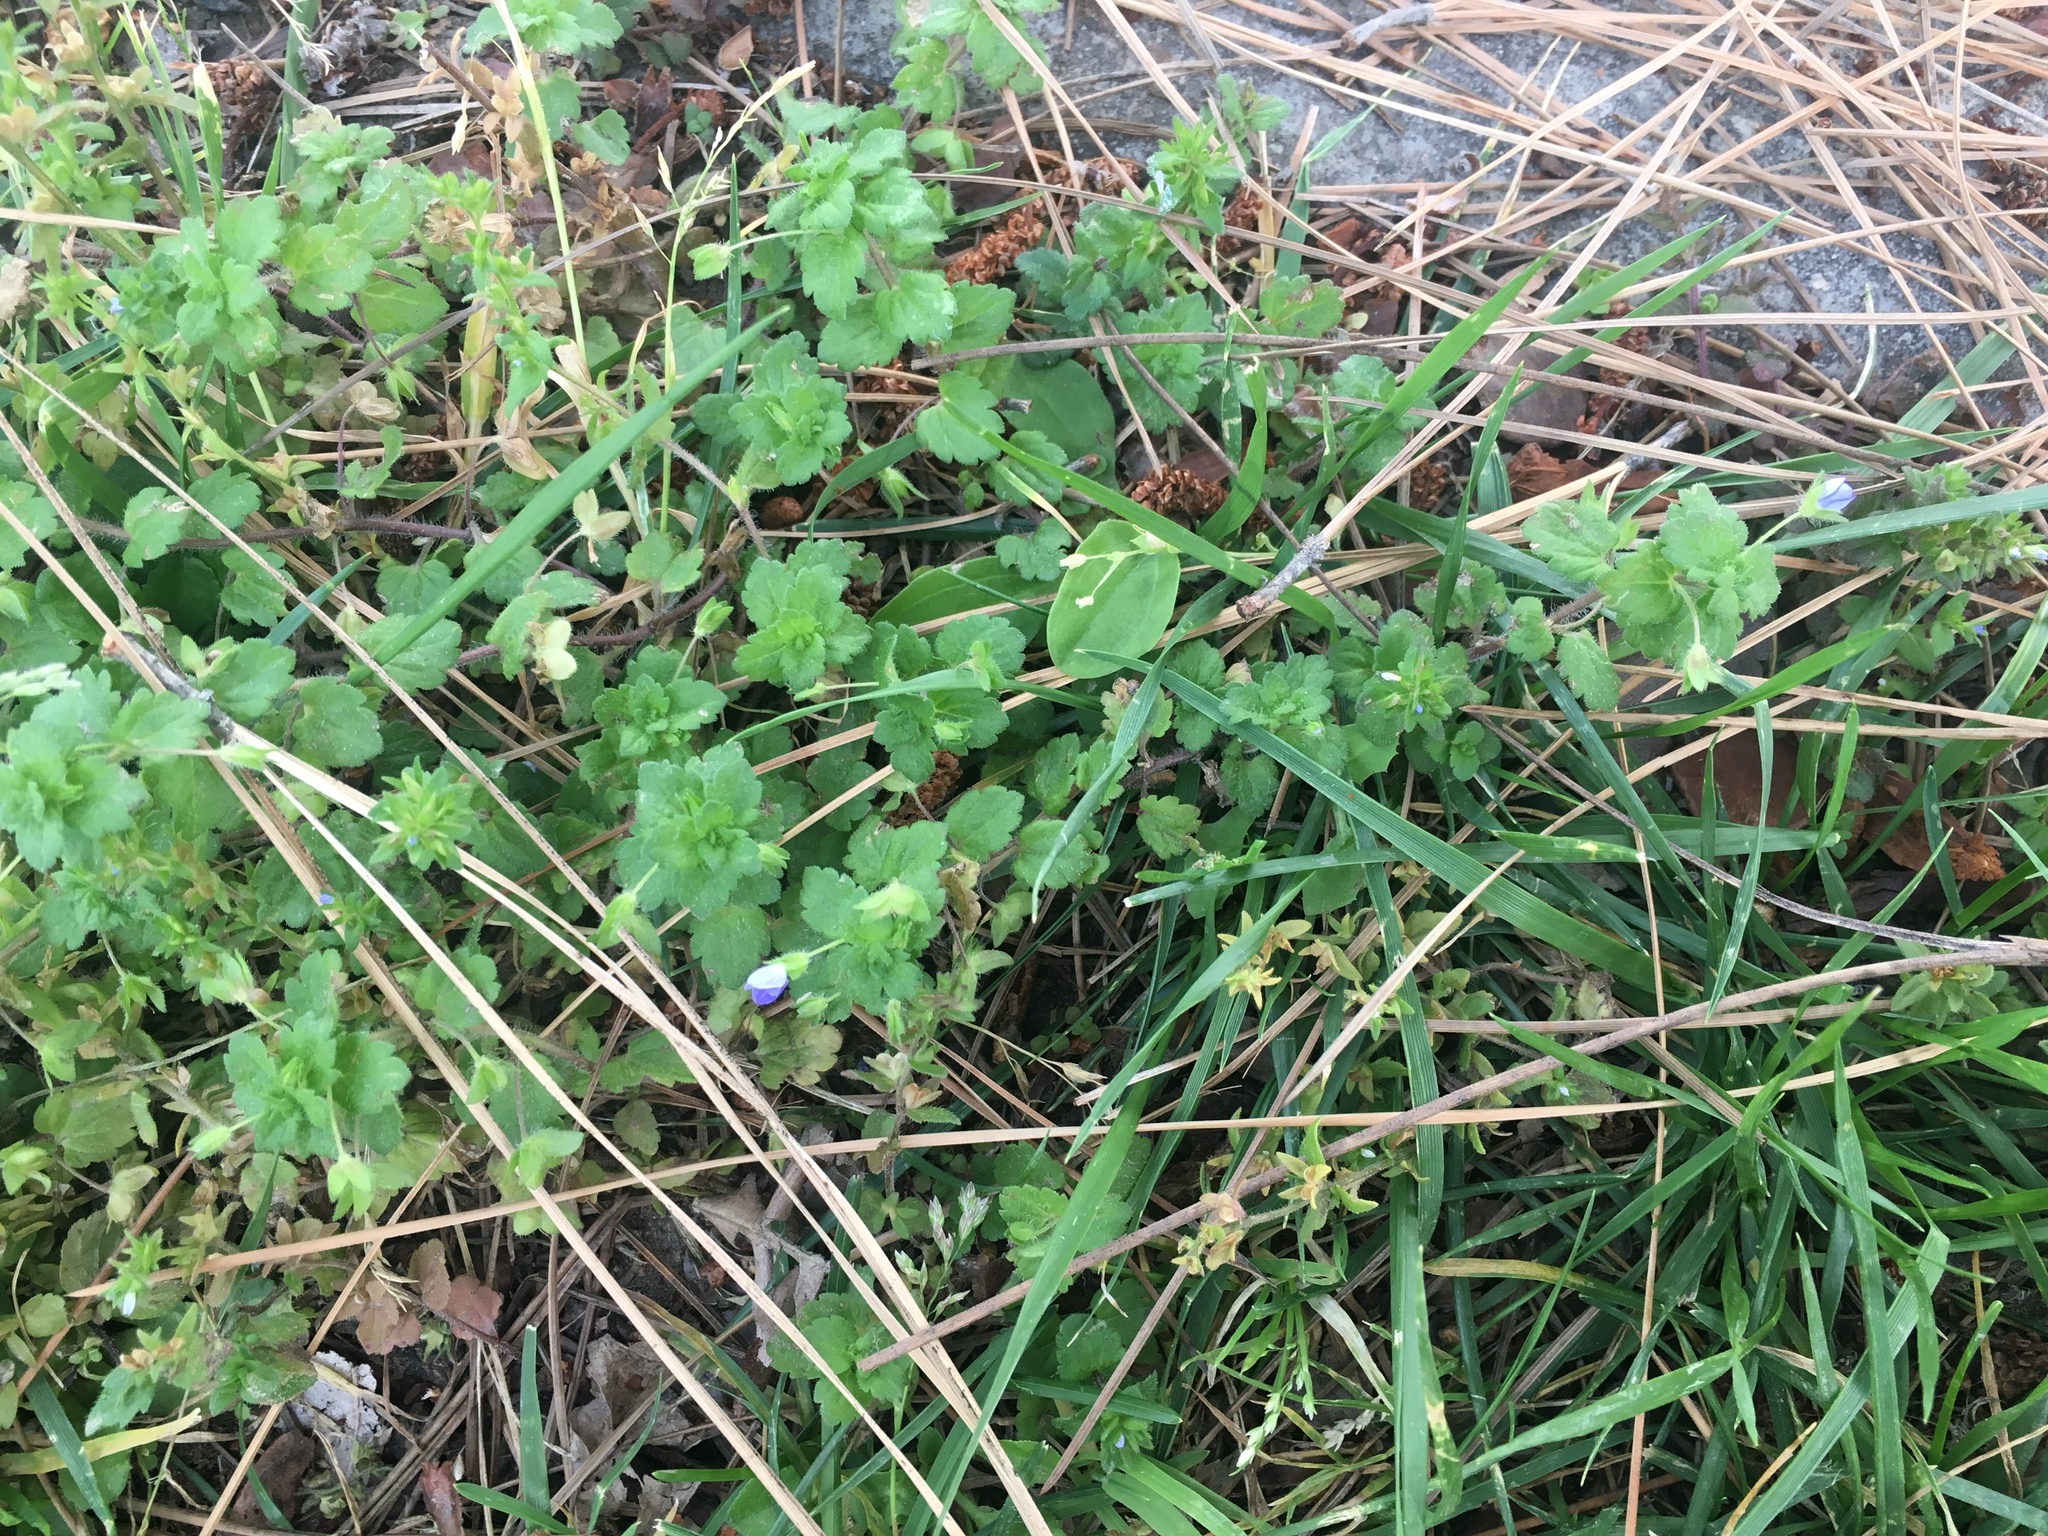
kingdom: Plantae
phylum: Tracheophyta
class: Magnoliopsida
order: Lamiales
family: Plantaginaceae
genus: Veronica
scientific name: Veronica persica
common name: Common field-speedwell
